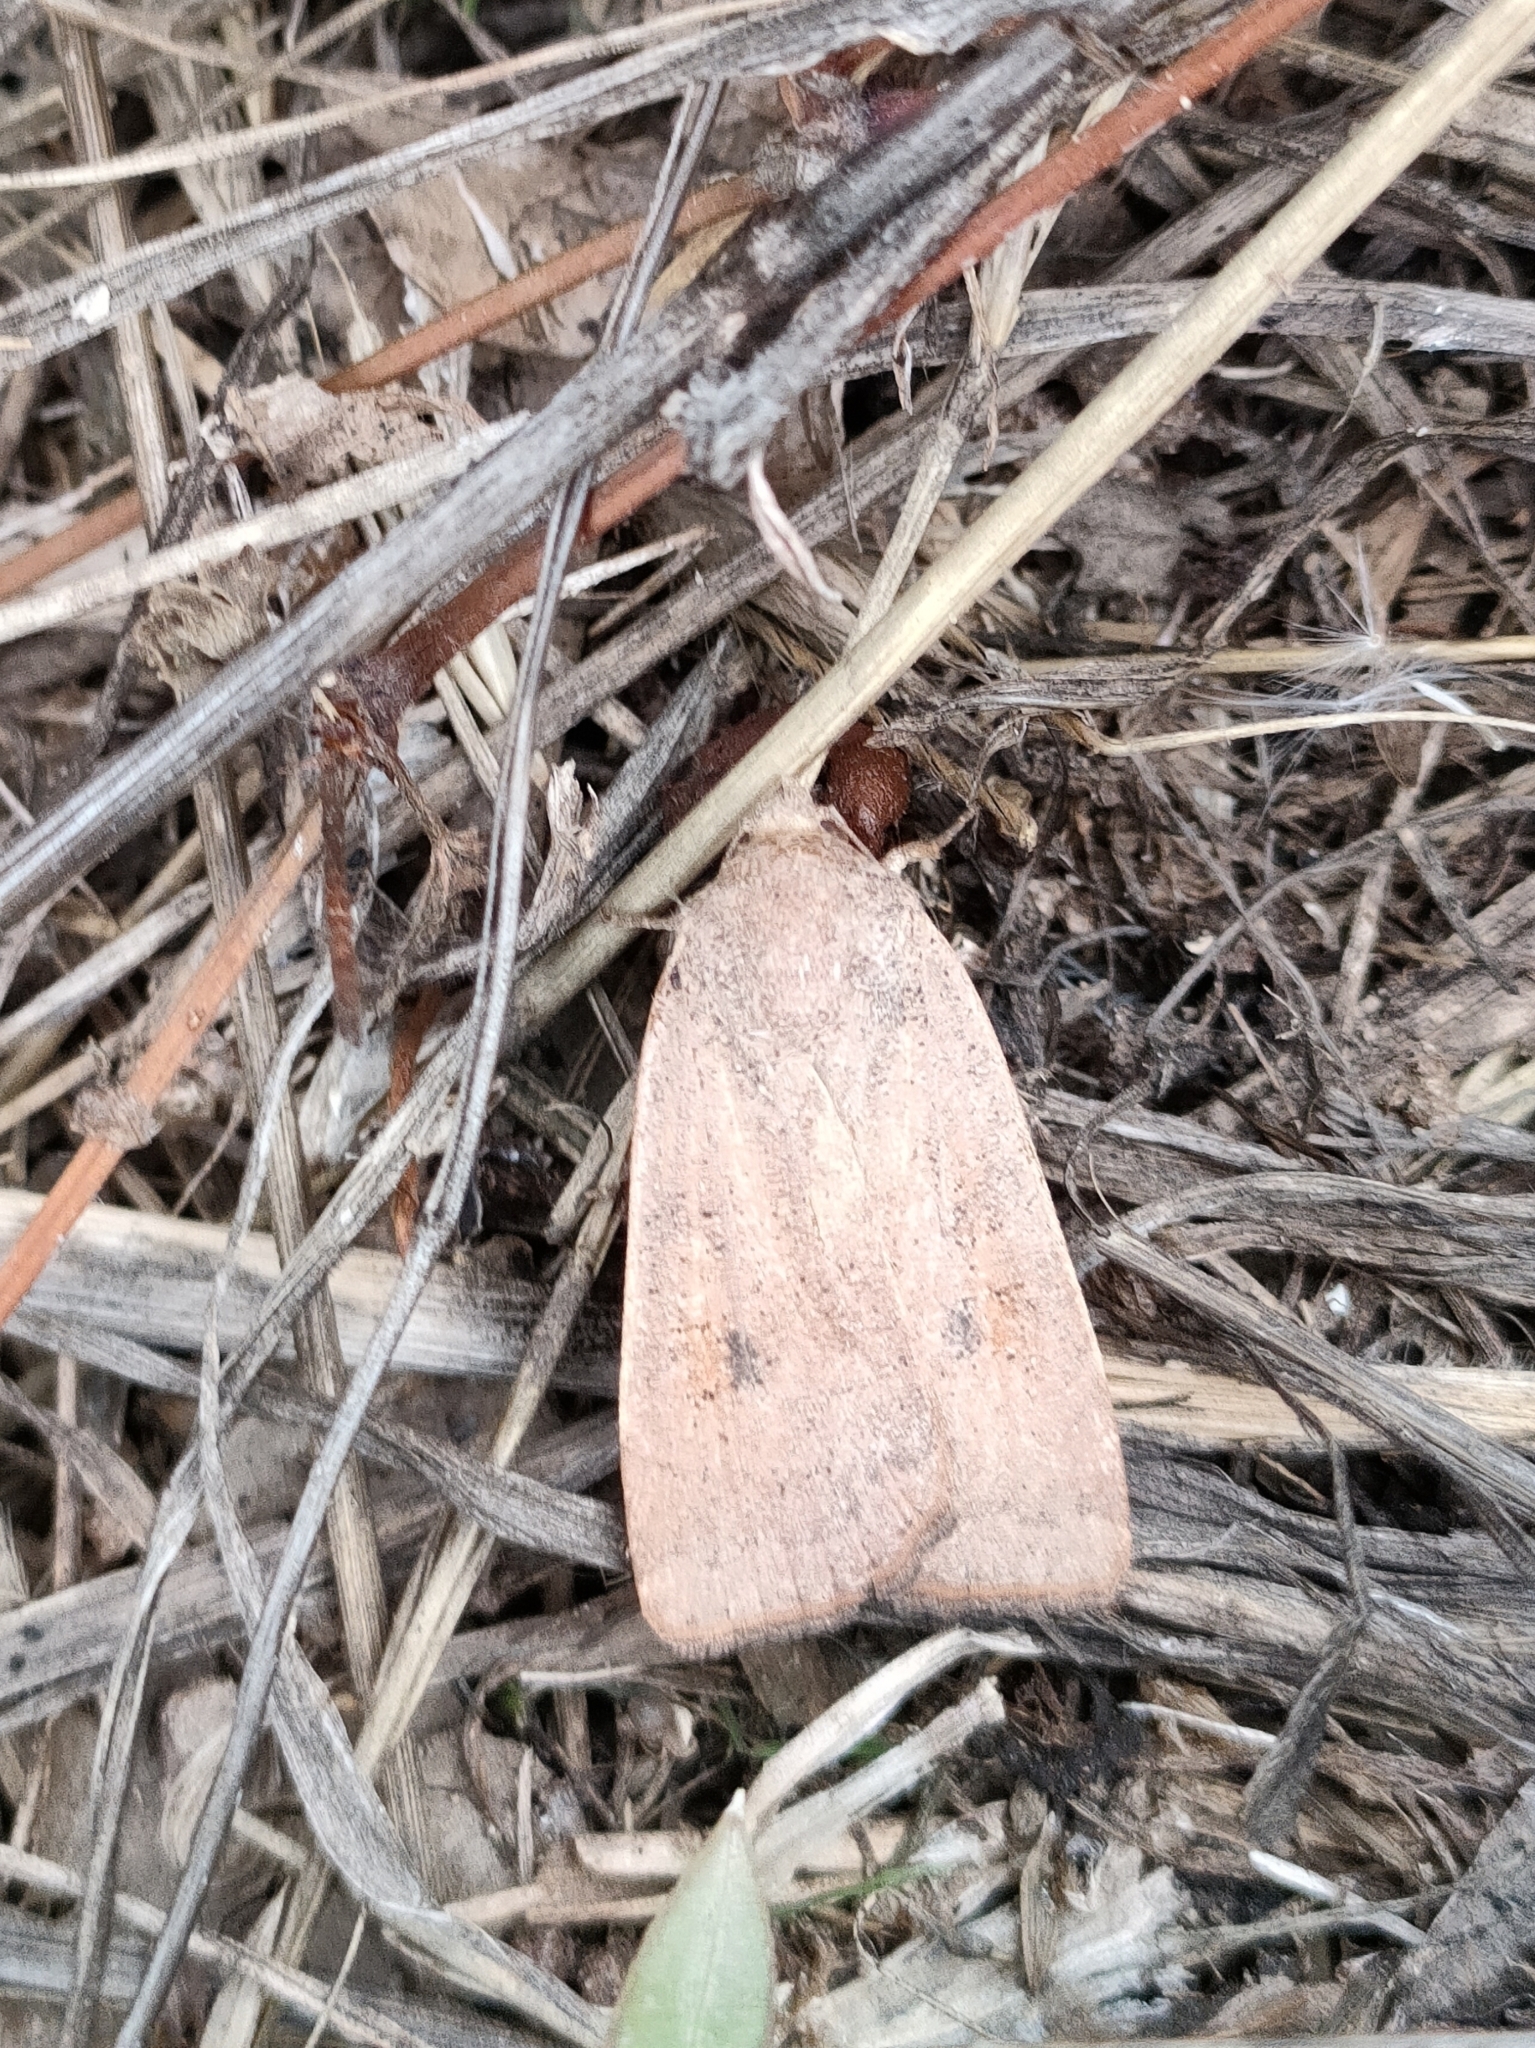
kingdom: Animalia
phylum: Arthropoda
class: Insecta
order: Lepidoptera
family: Noctuidae
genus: Noctua
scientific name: Noctua comes
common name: Lesser yellow underwing
